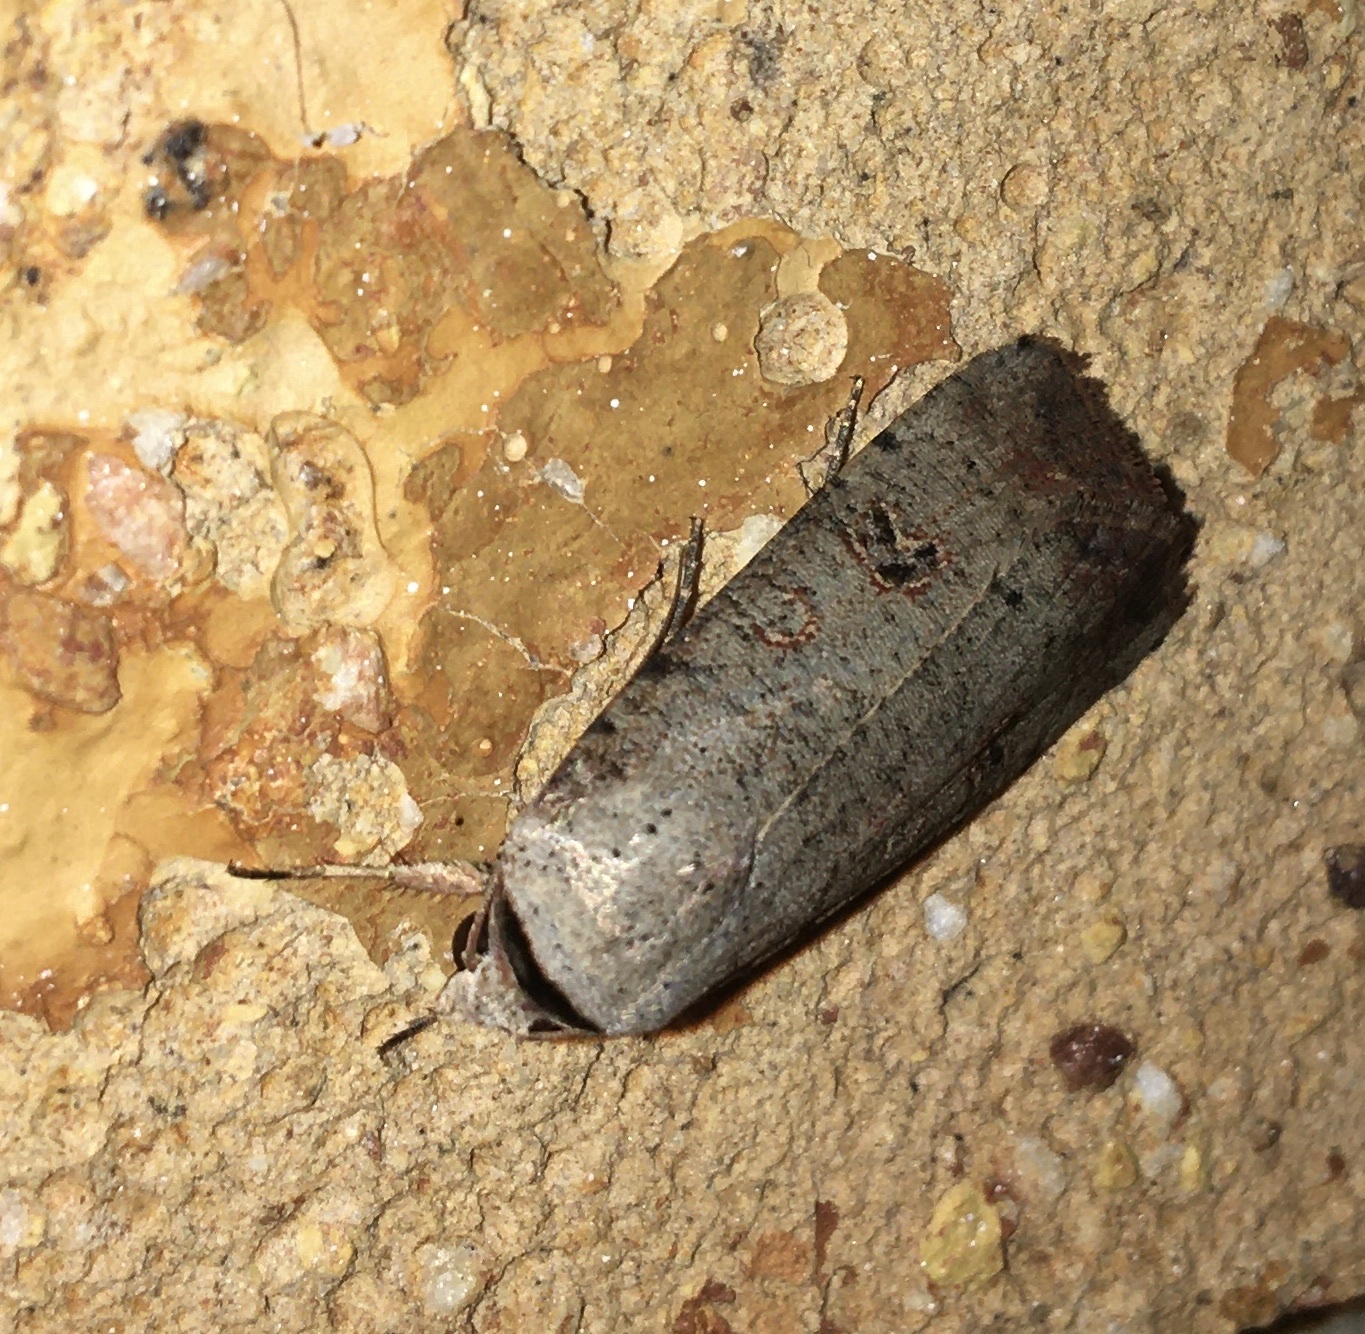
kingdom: Animalia
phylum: Arthropoda
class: Insecta
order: Lepidoptera
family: Noctuidae
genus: Anicla
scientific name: Anicla infecta
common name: Green cutworm
